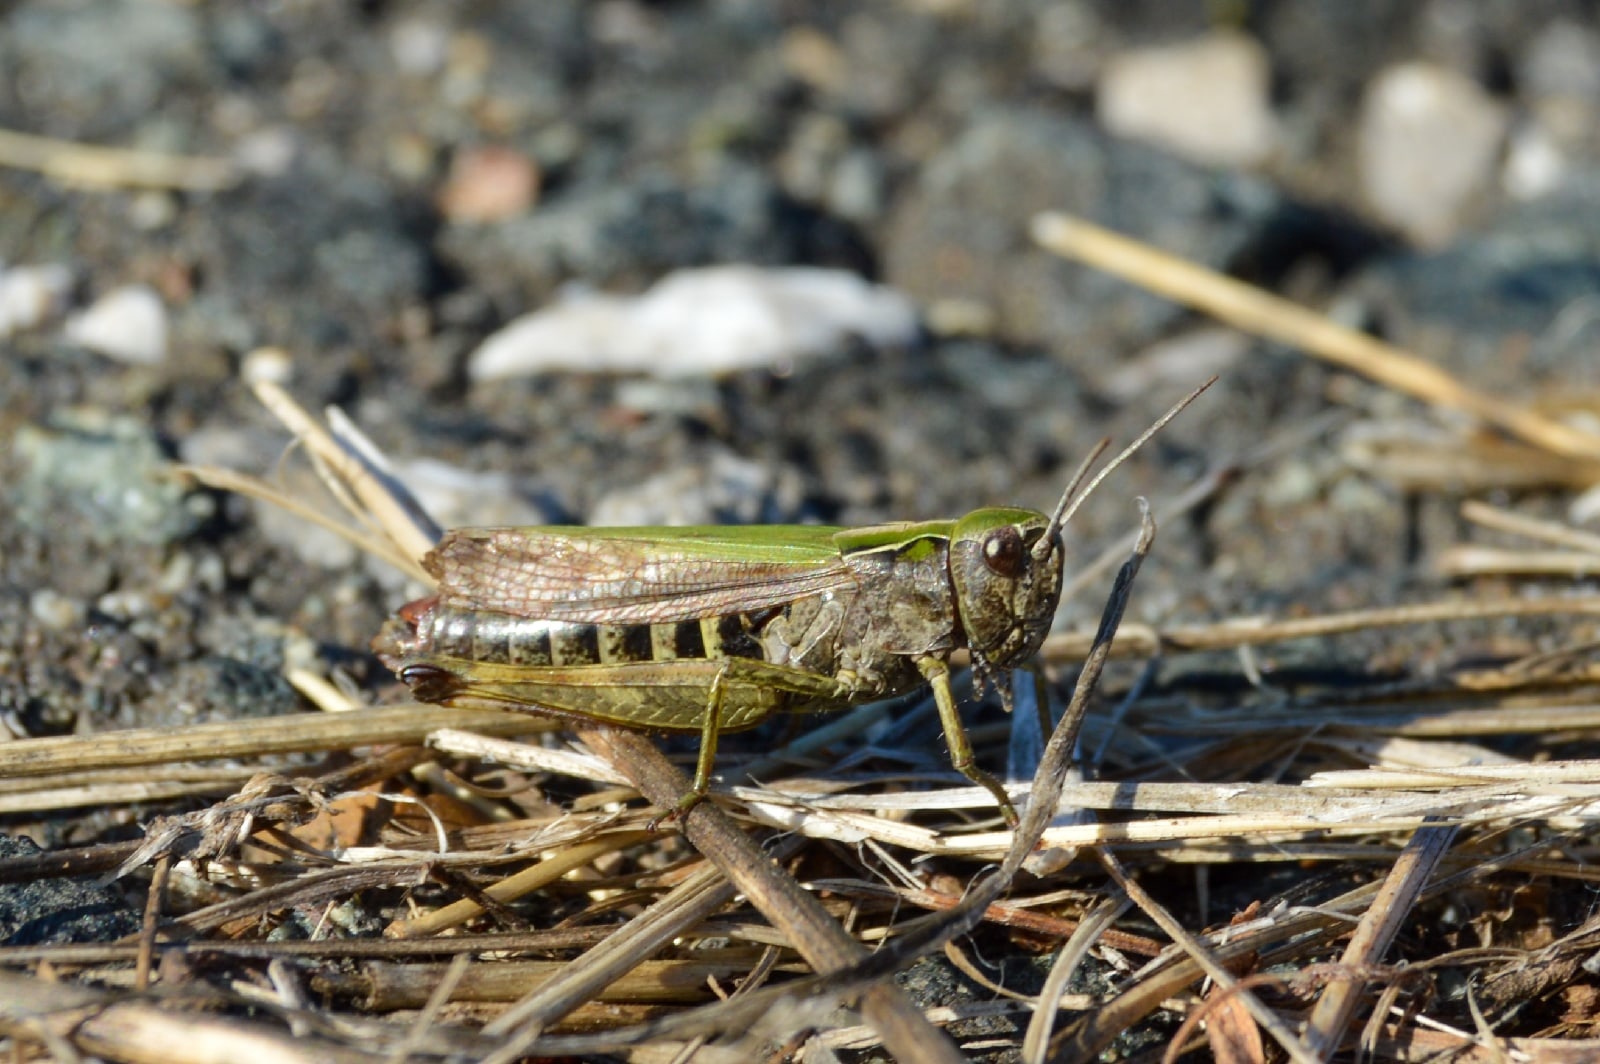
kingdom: Animalia
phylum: Arthropoda
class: Insecta
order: Orthoptera
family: Acrididae
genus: Omocestus
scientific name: Omocestus viridulus
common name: Common green grasshopper
